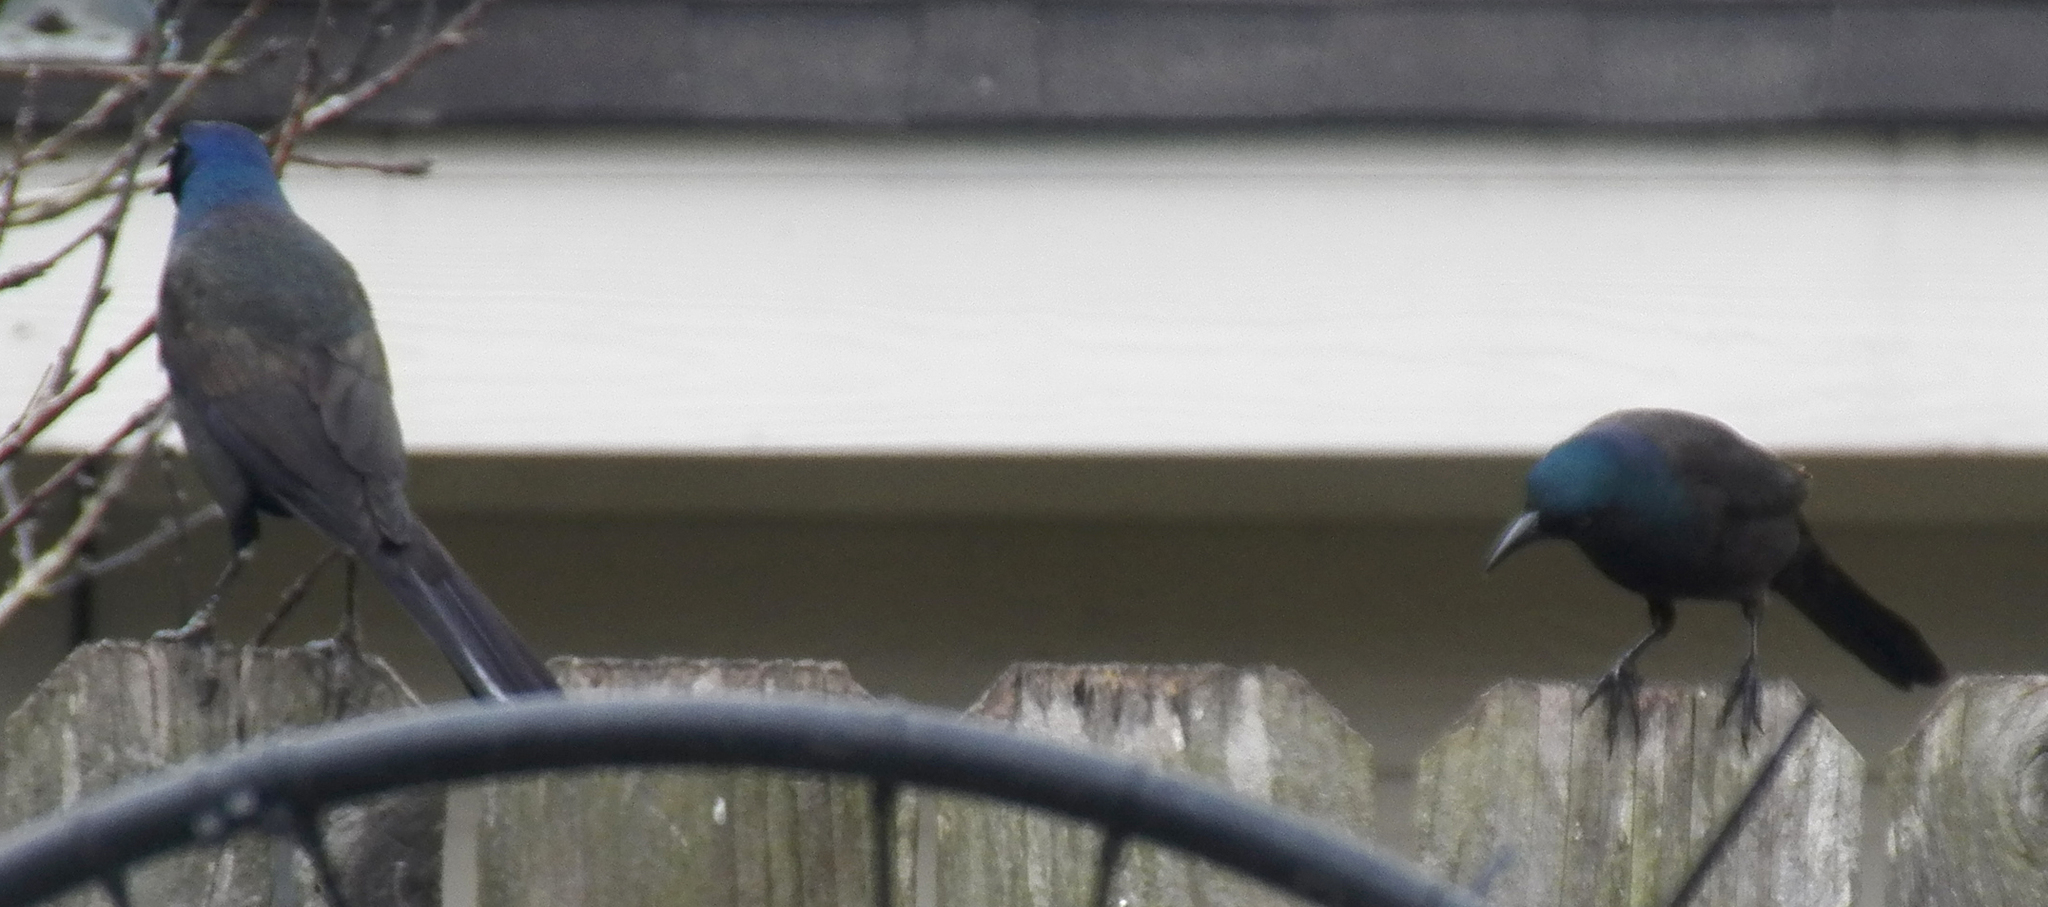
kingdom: Animalia
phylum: Chordata
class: Aves
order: Passeriformes
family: Icteridae
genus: Quiscalus
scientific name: Quiscalus quiscula
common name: Common grackle
